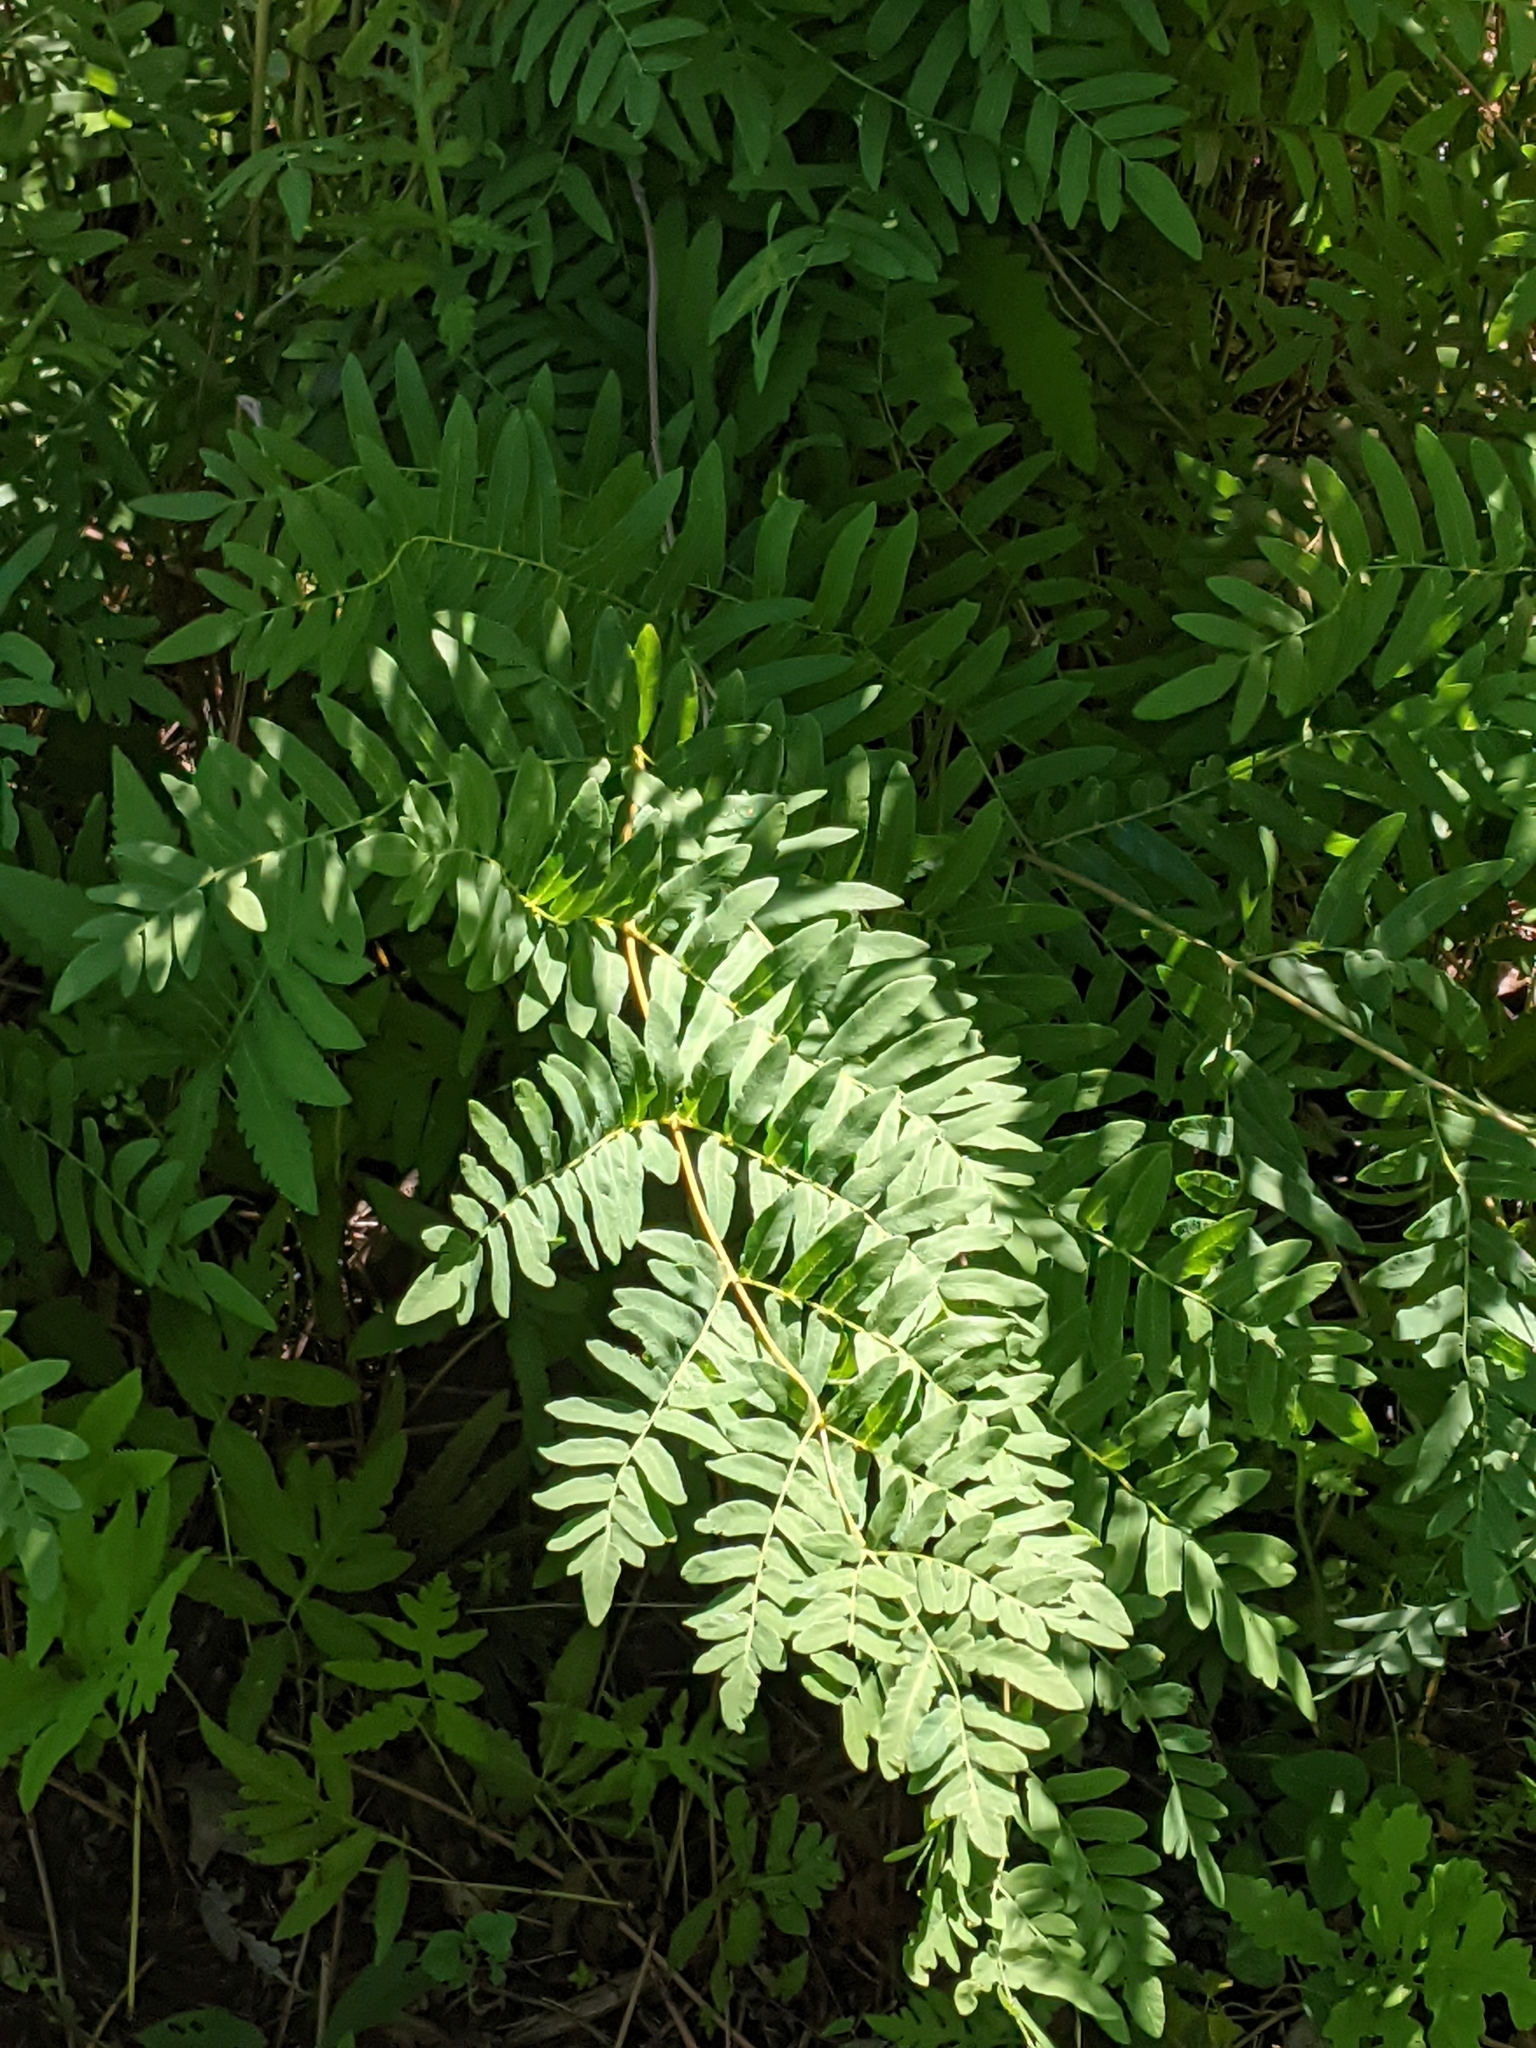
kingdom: Plantae
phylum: Tracheophyta
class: Polypodiopsida
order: Osmundales
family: Osmundaceae
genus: Osmunda
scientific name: Osmunda spectabilis
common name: American royal fern
